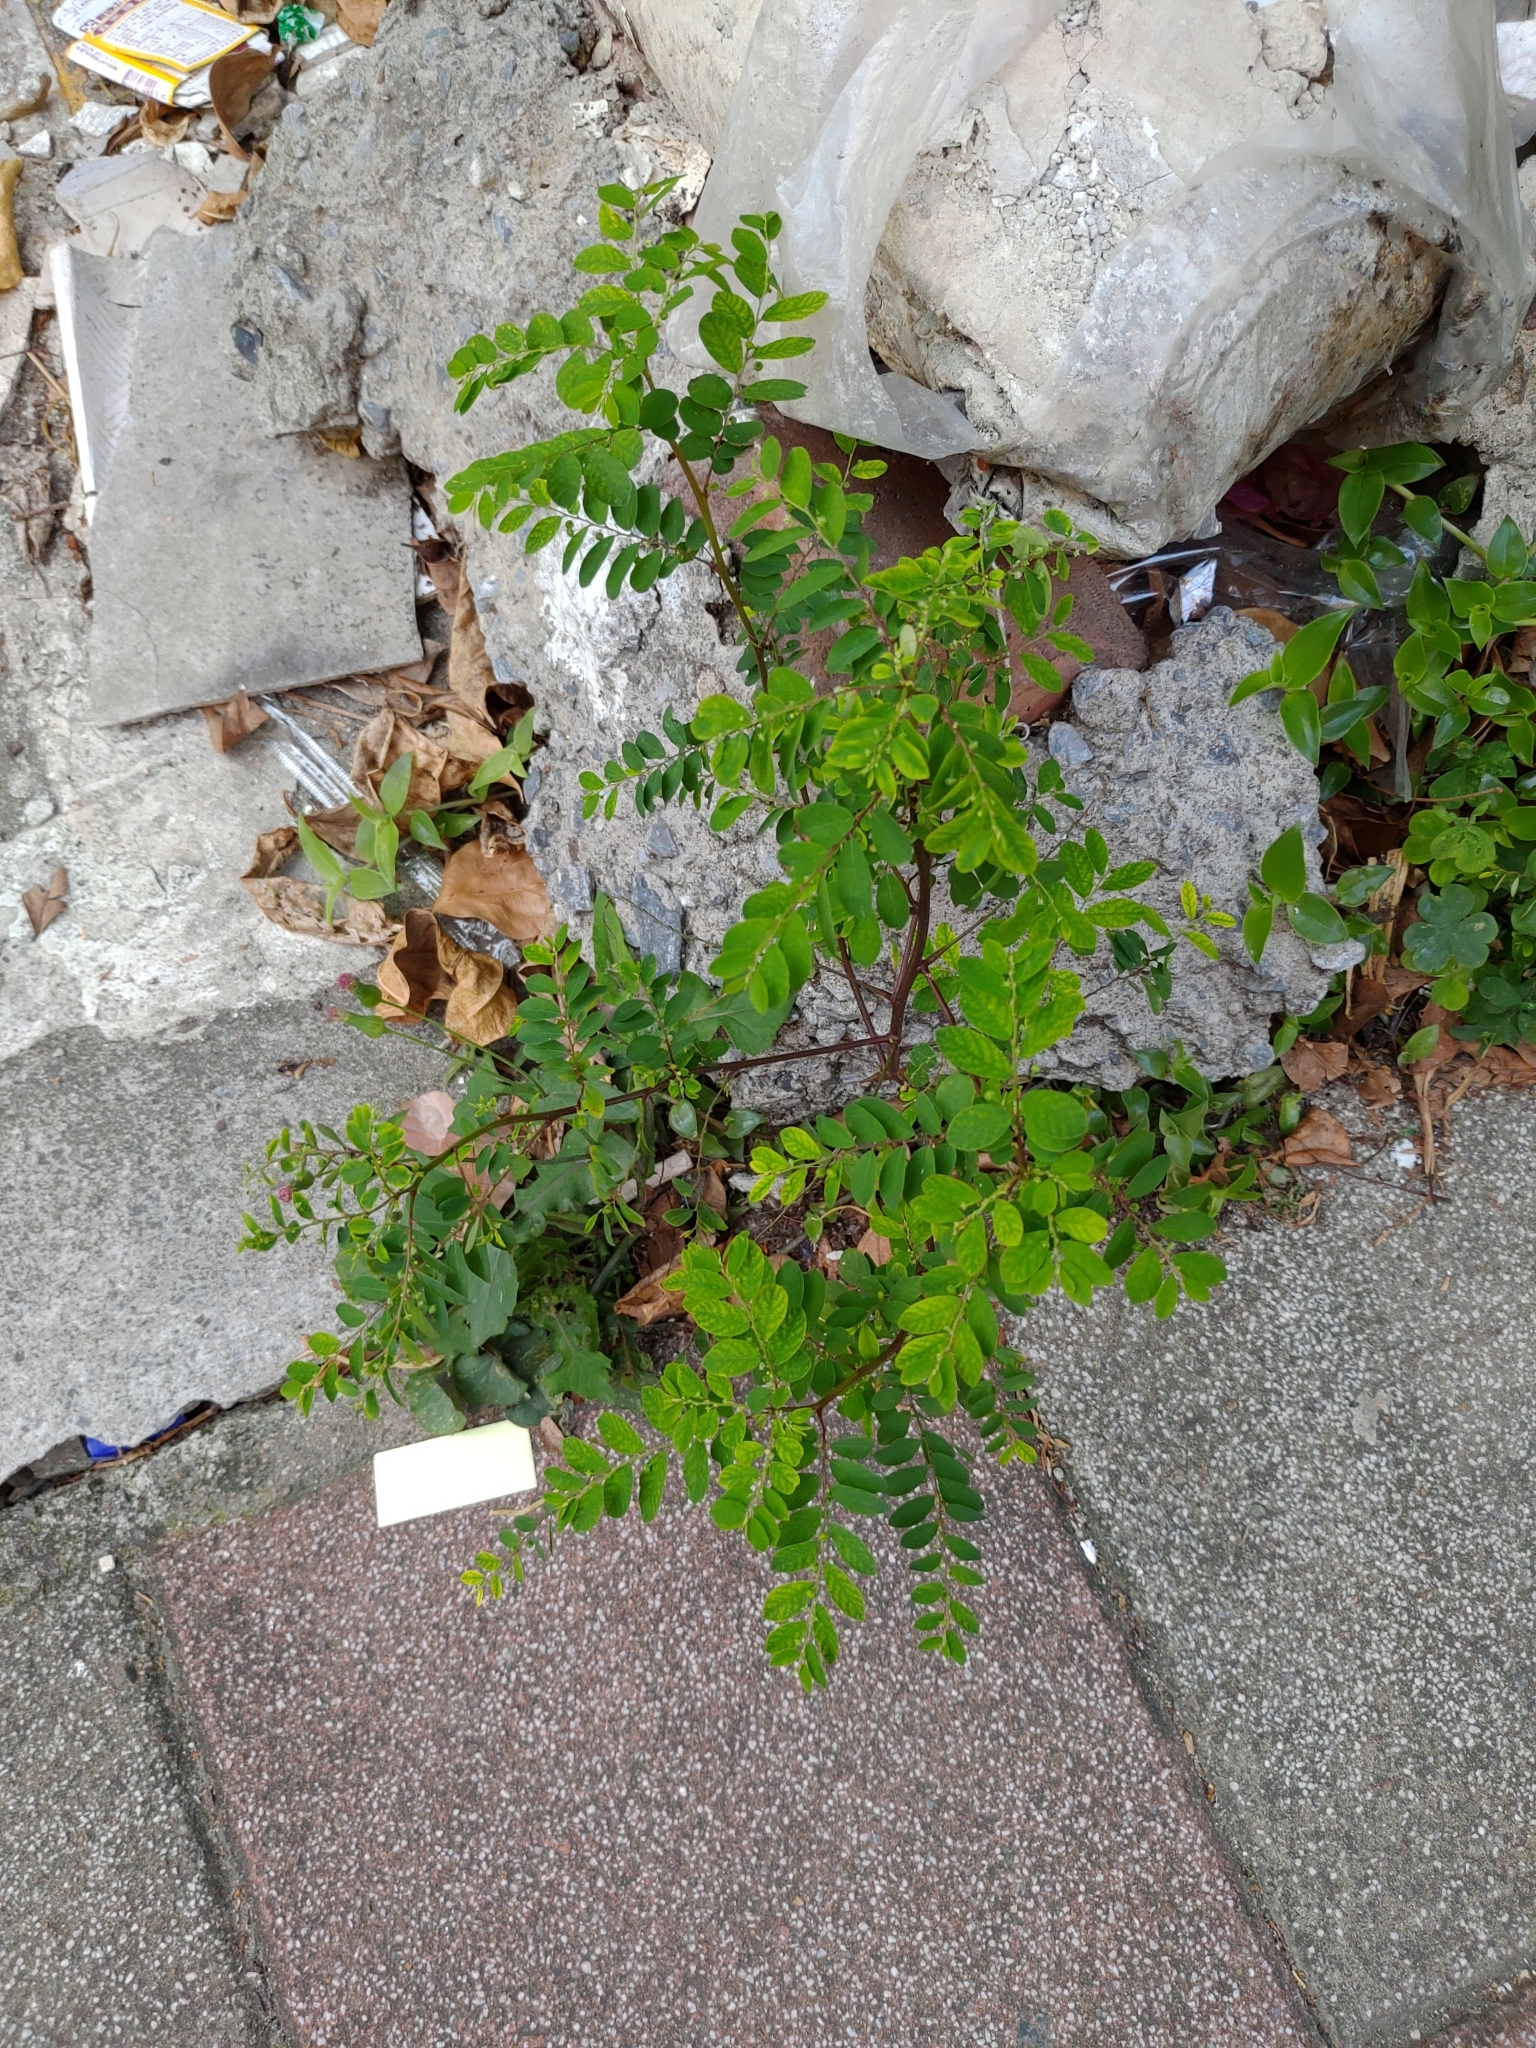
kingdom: Plantae
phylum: Tracheophyta
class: Magnoliopsida
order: Malpighiales
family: Phyllanthaceae
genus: Phyllanthus
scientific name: Phyllanthus tenellus
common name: Mascarene island leaf-flower
